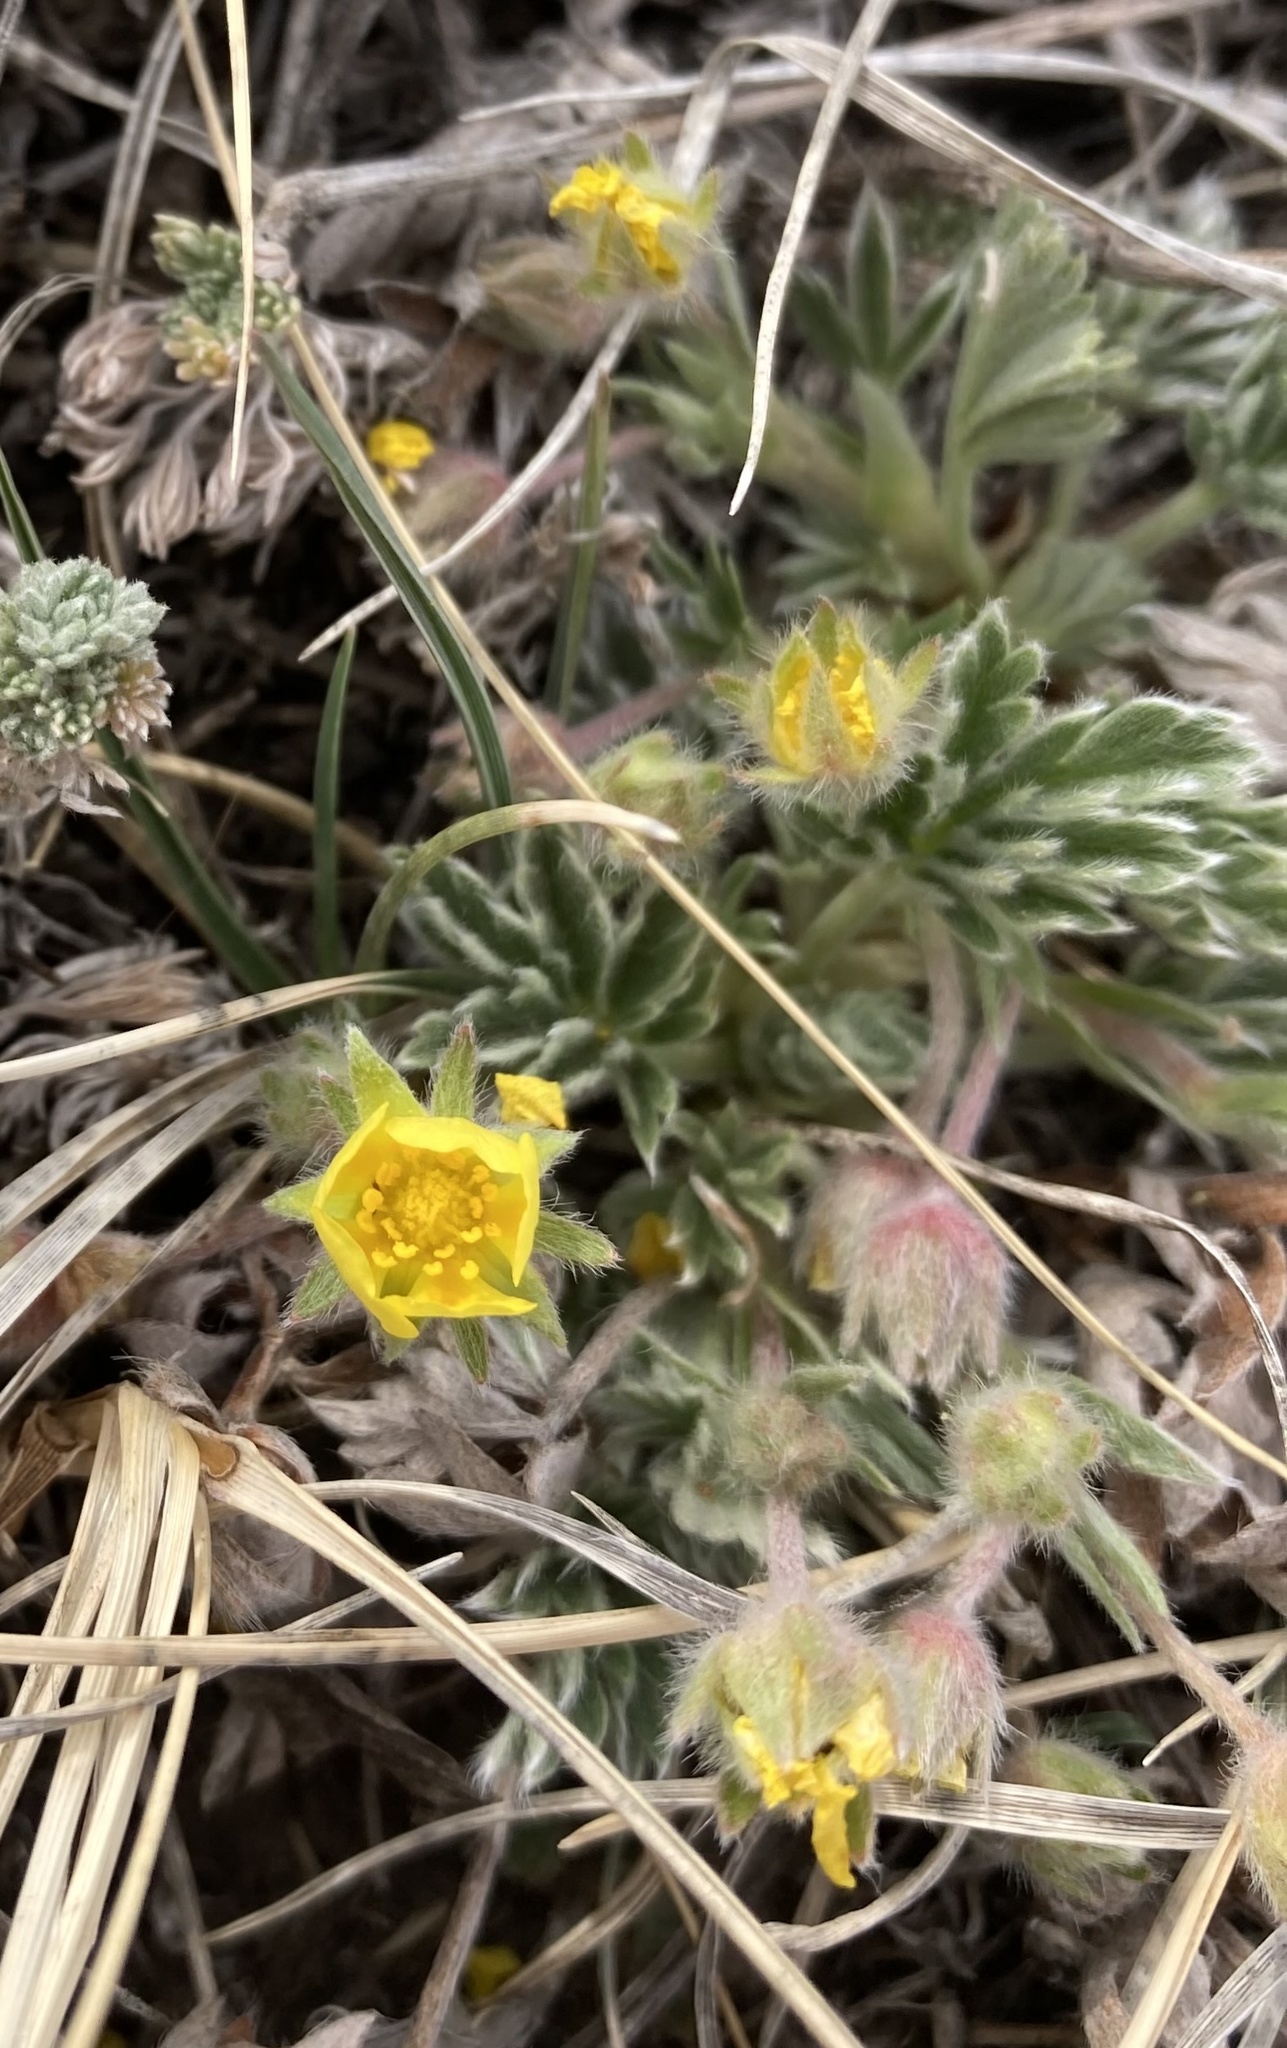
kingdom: Plantae
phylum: Tracheophyta
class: Magnoliopsida
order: Rosales
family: Rosaceae
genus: Potentilla
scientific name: Potentilla concinna
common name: Early cinquefoil
